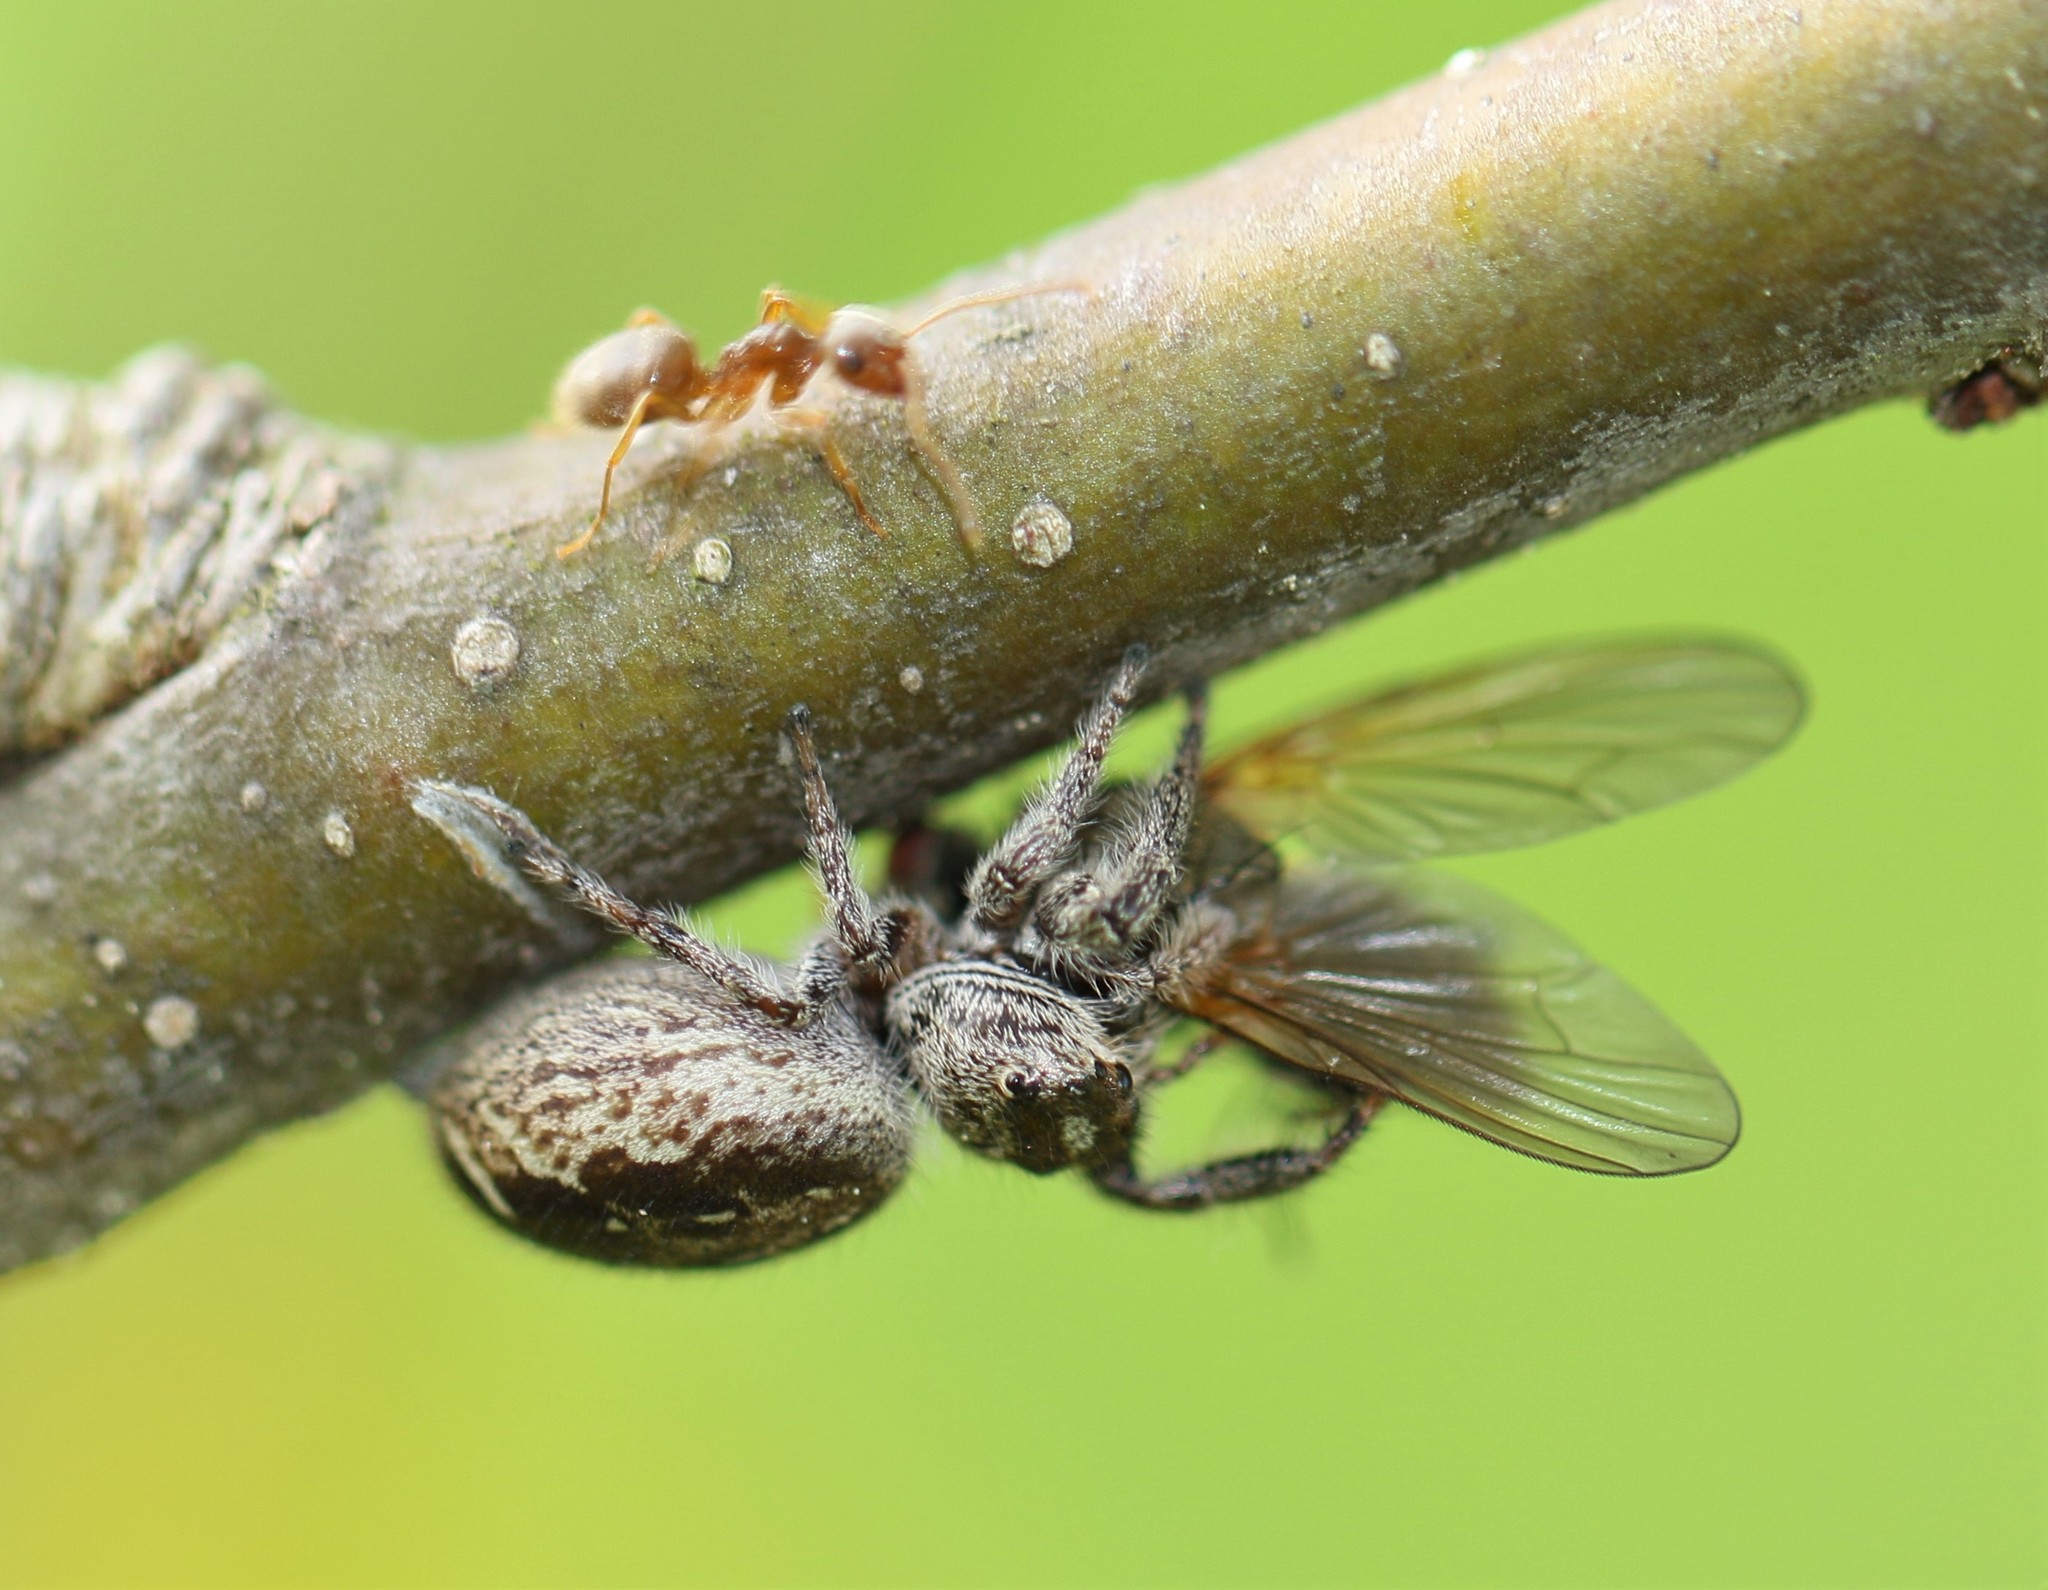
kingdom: Animalia
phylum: Arthropoda
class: Arachnida
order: Araneae
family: Salticidae
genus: Eris
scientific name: Eris militaris
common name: Bronze jumper
